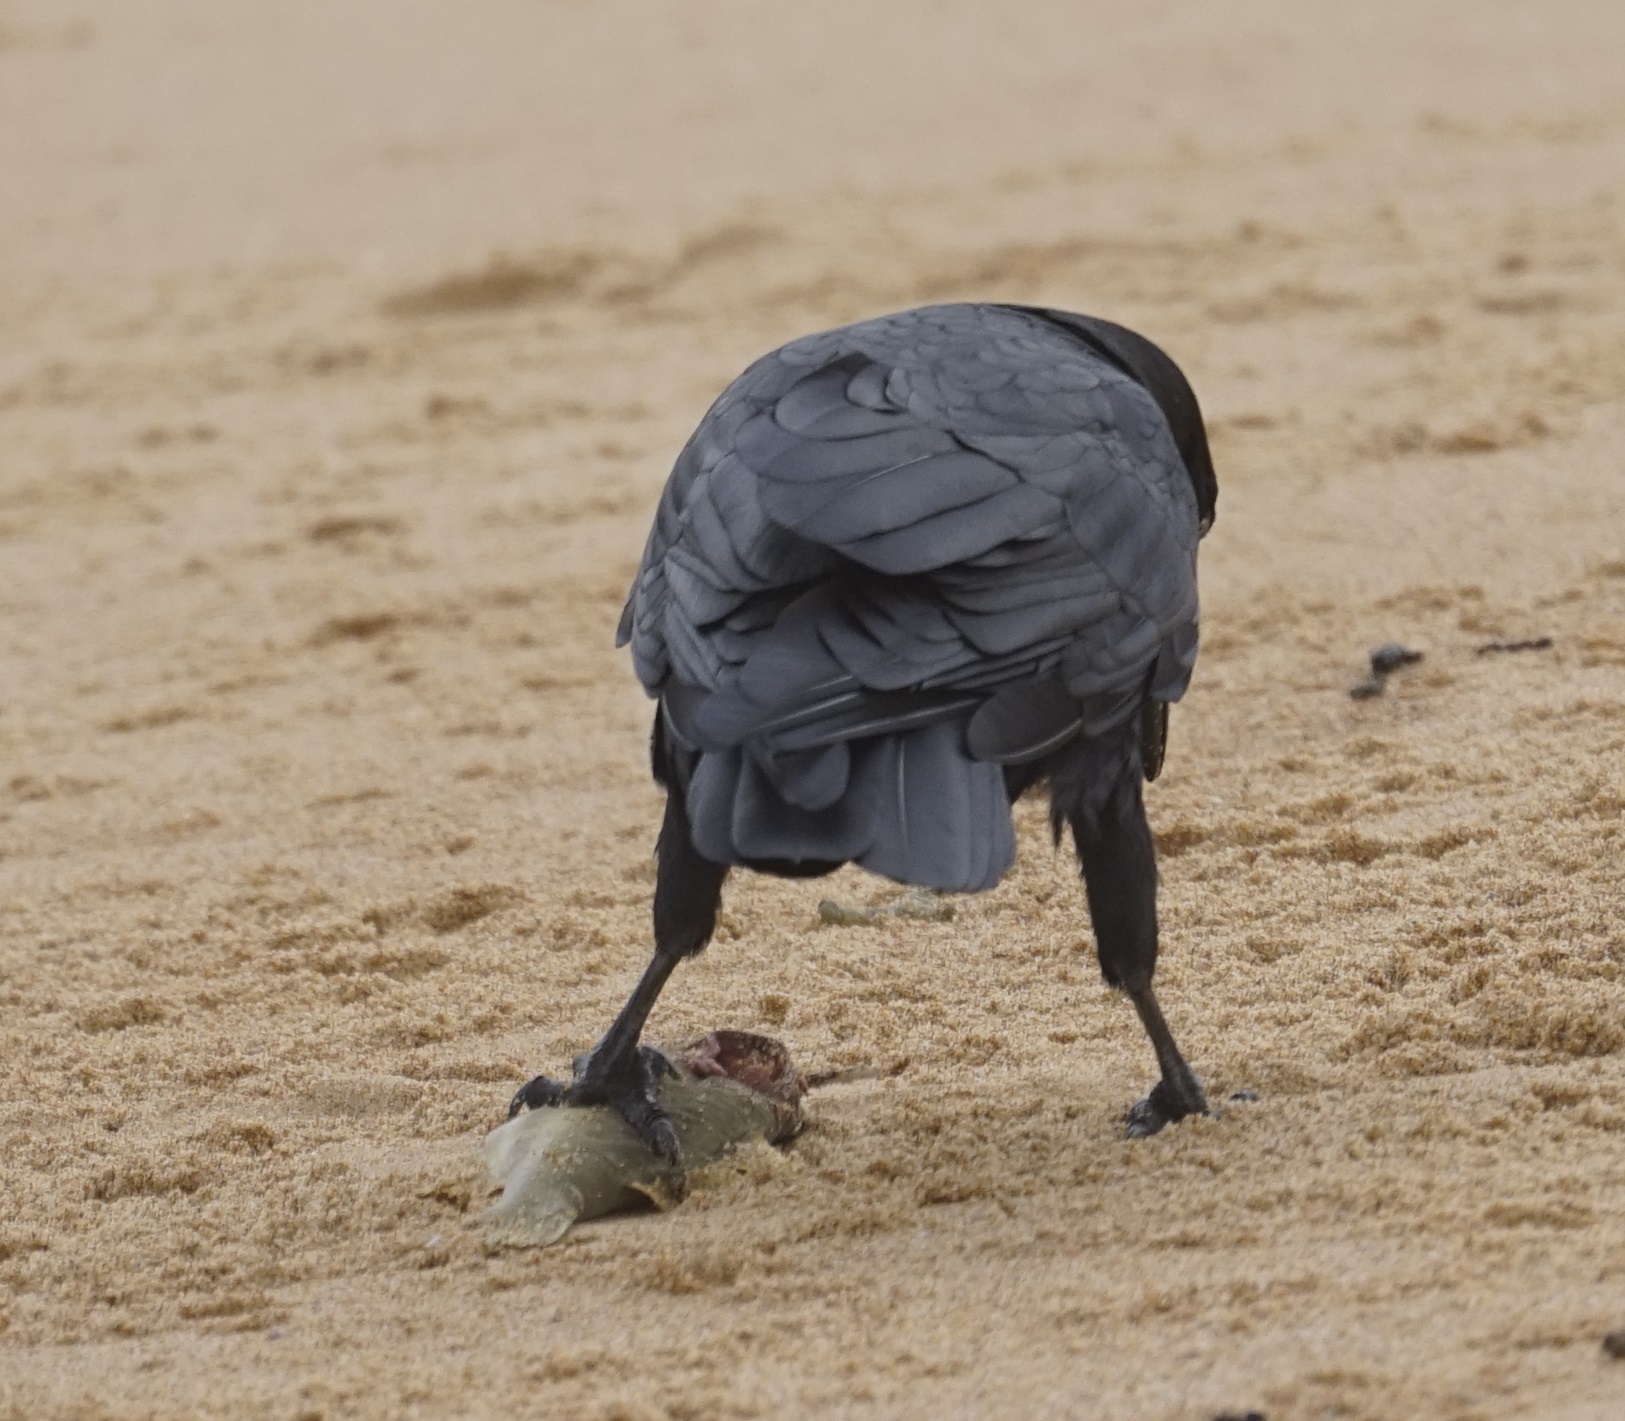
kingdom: Animalia
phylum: Chordata
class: Aves
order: Passeriformes
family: Corvidae
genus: Corvus
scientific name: Corvus coronoides
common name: Australian raven
